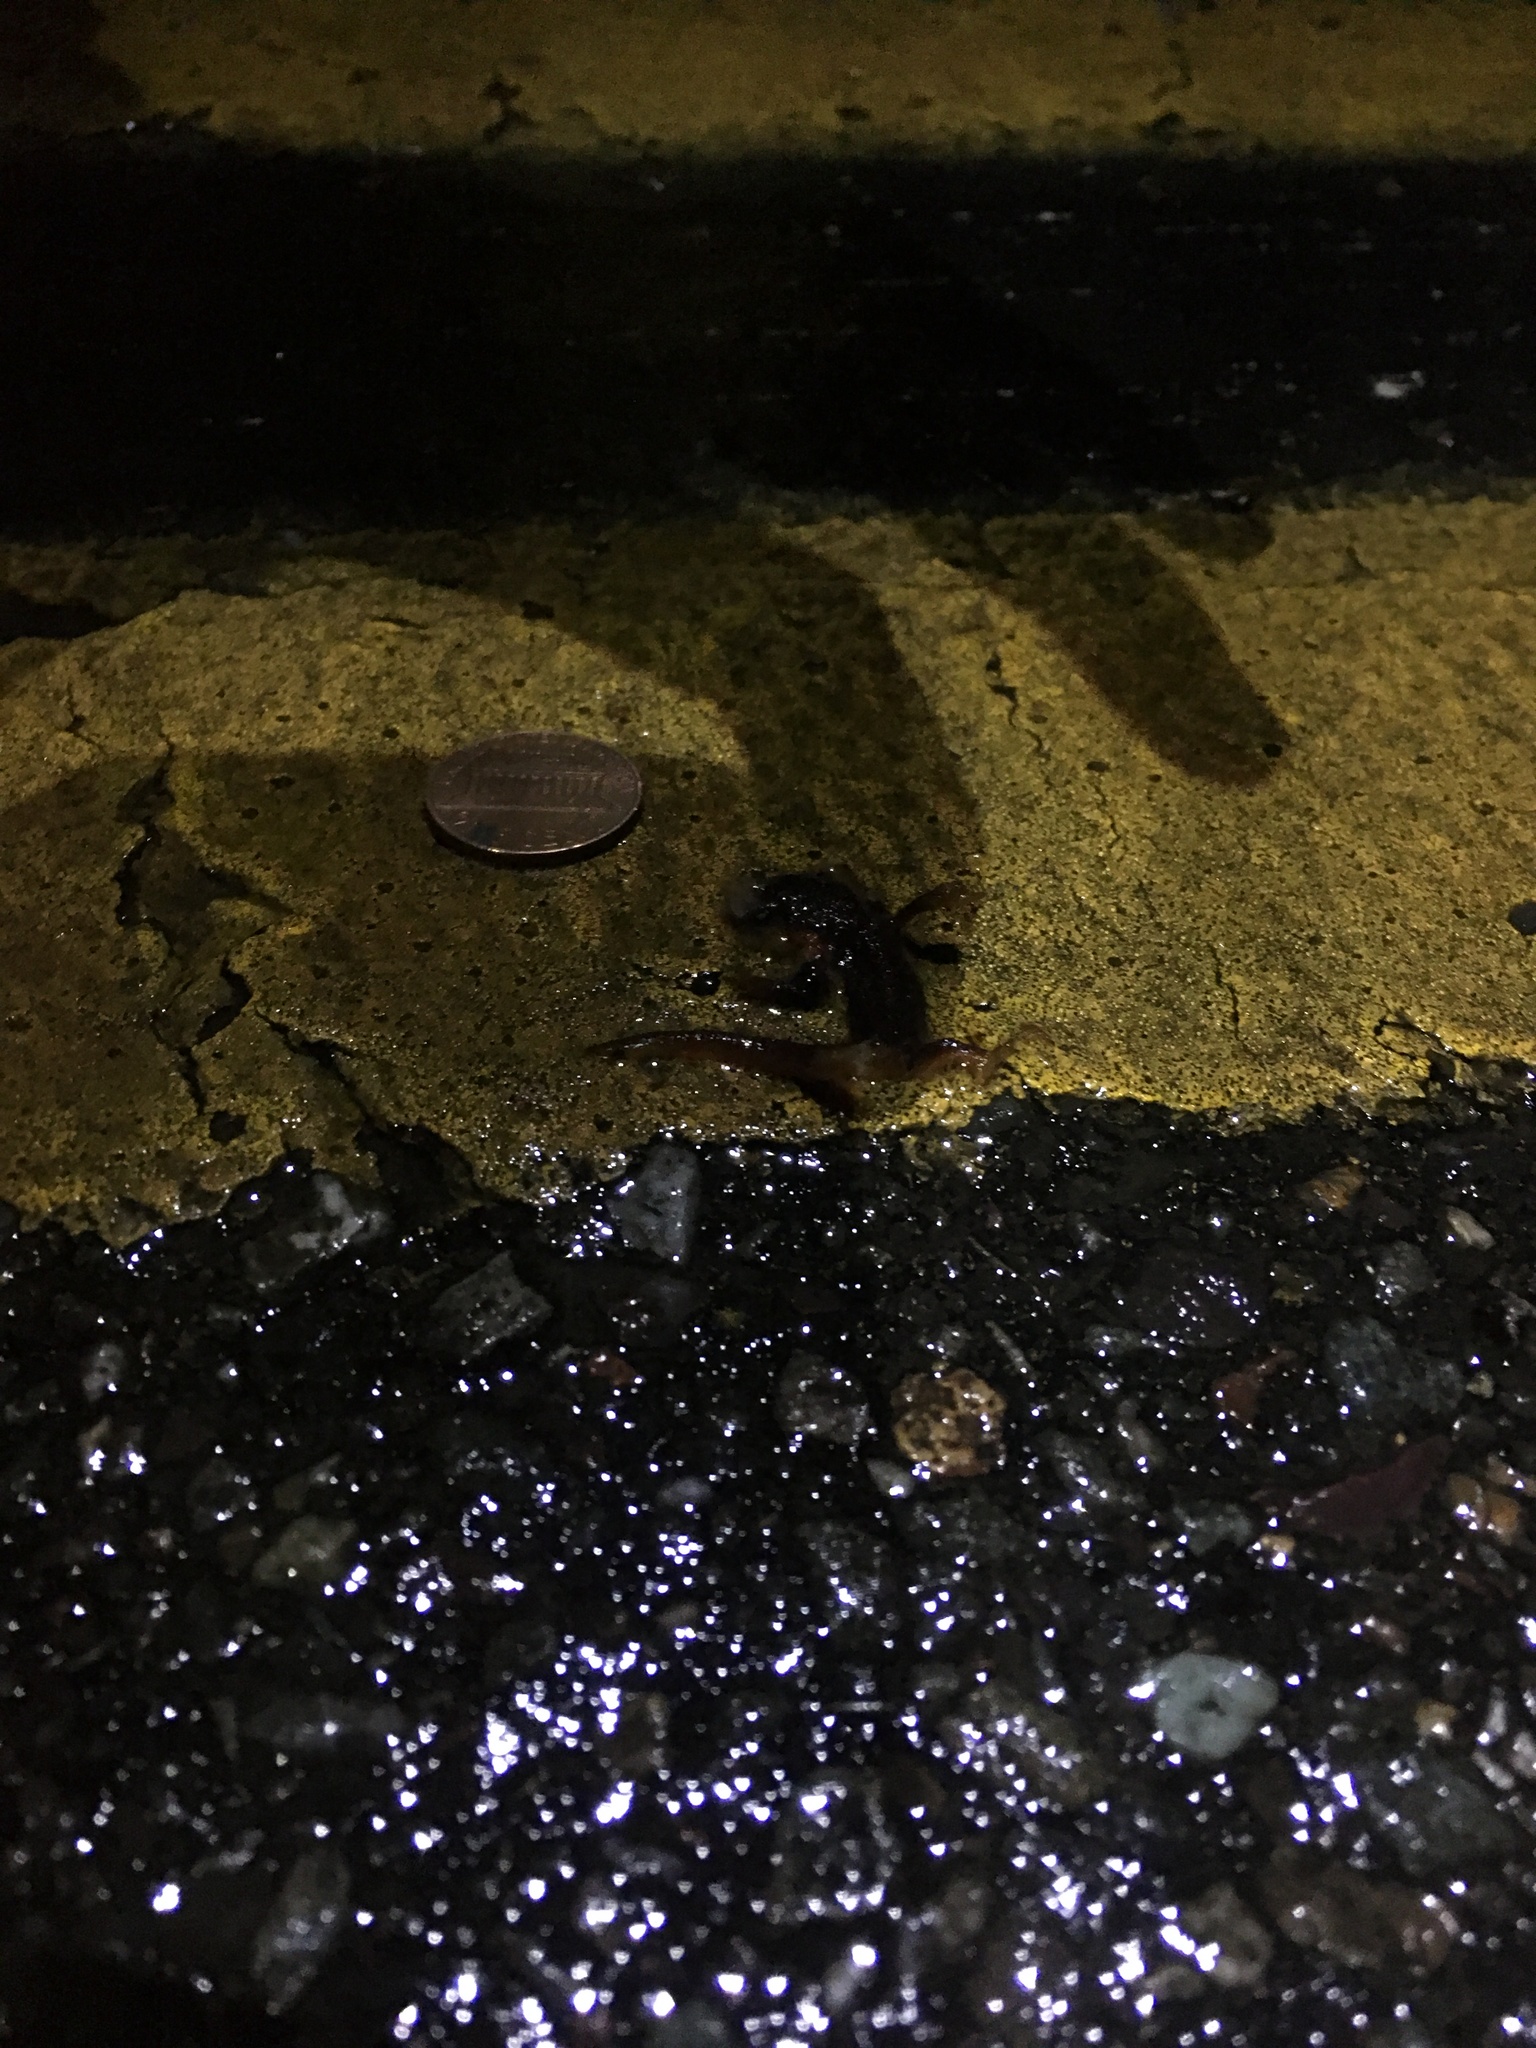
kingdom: Animalia
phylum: Chordata
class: Amphibia
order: Caudata
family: Salamandridae
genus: Taricha
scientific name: Taricha
